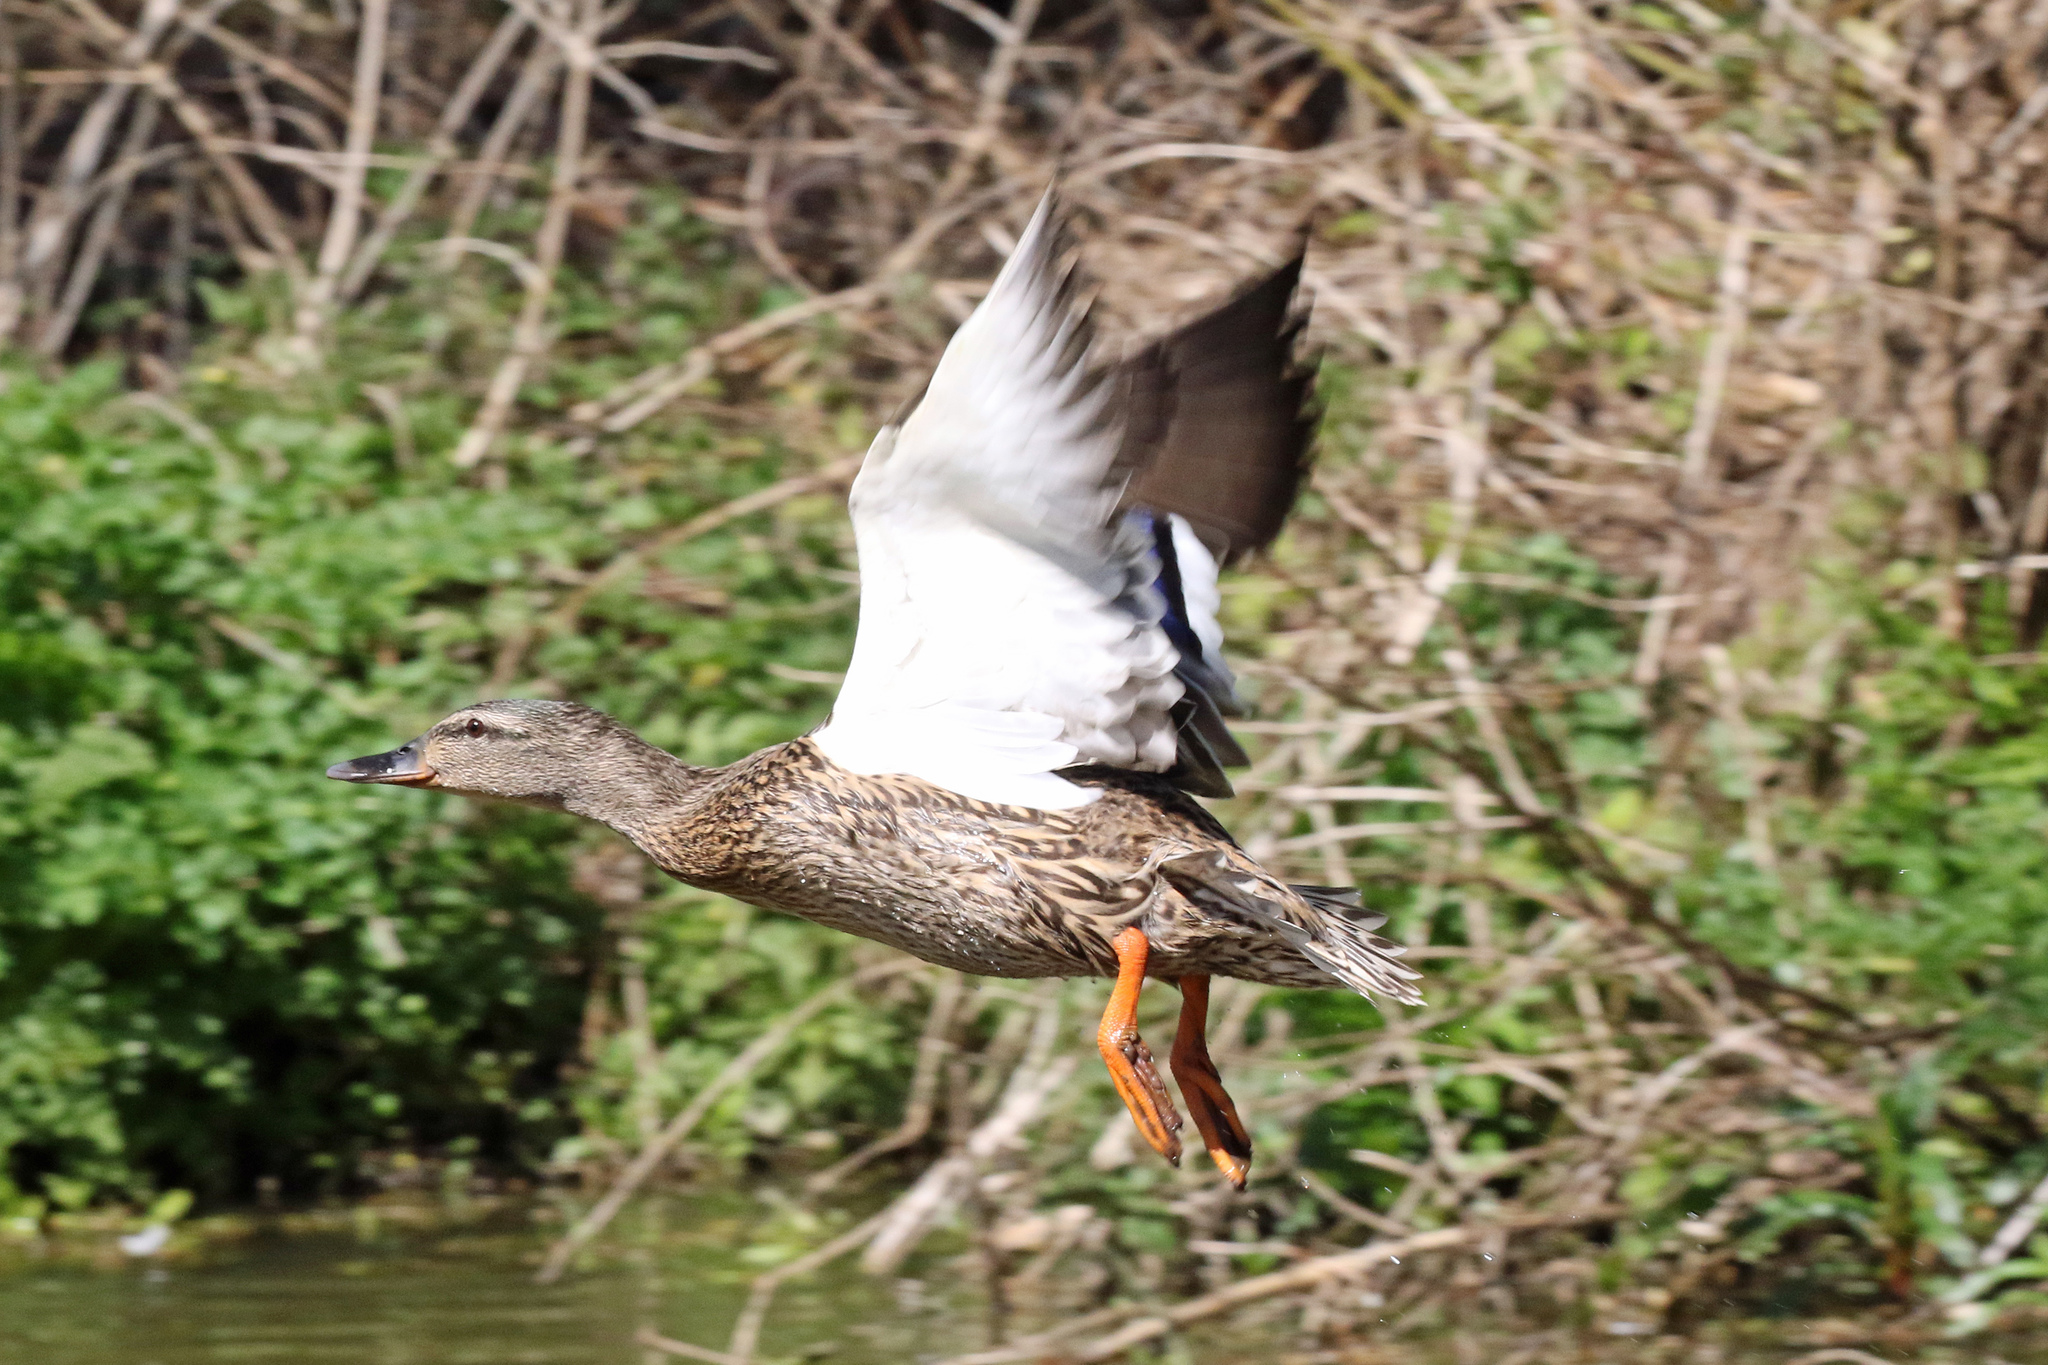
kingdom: Animalia
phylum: Chordata
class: Aves
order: Anseriformes
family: Anatidae
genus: Anas
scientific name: Anas platyrhynchos
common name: Mallard
